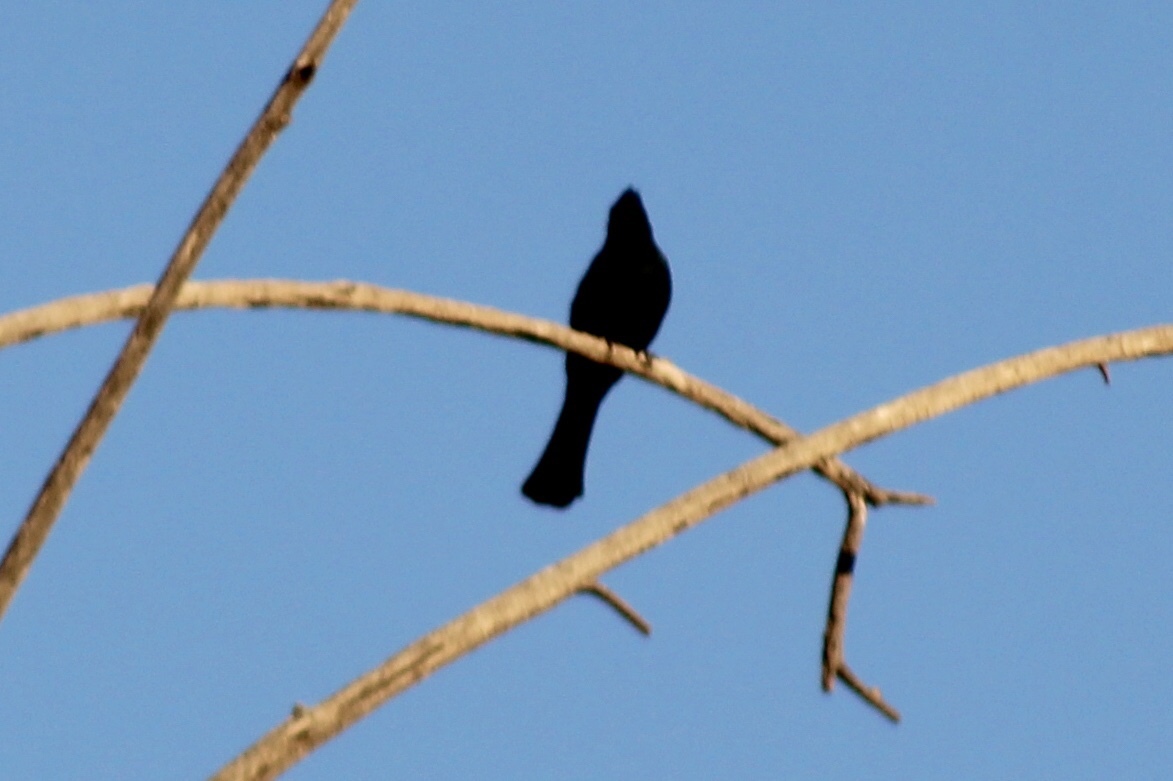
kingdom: Animalia
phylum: Chordata
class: Aves
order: Passeriformes
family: Ptilogonatidae
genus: Phainopepla
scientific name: Phainopepla nitens
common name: Phainopepla
